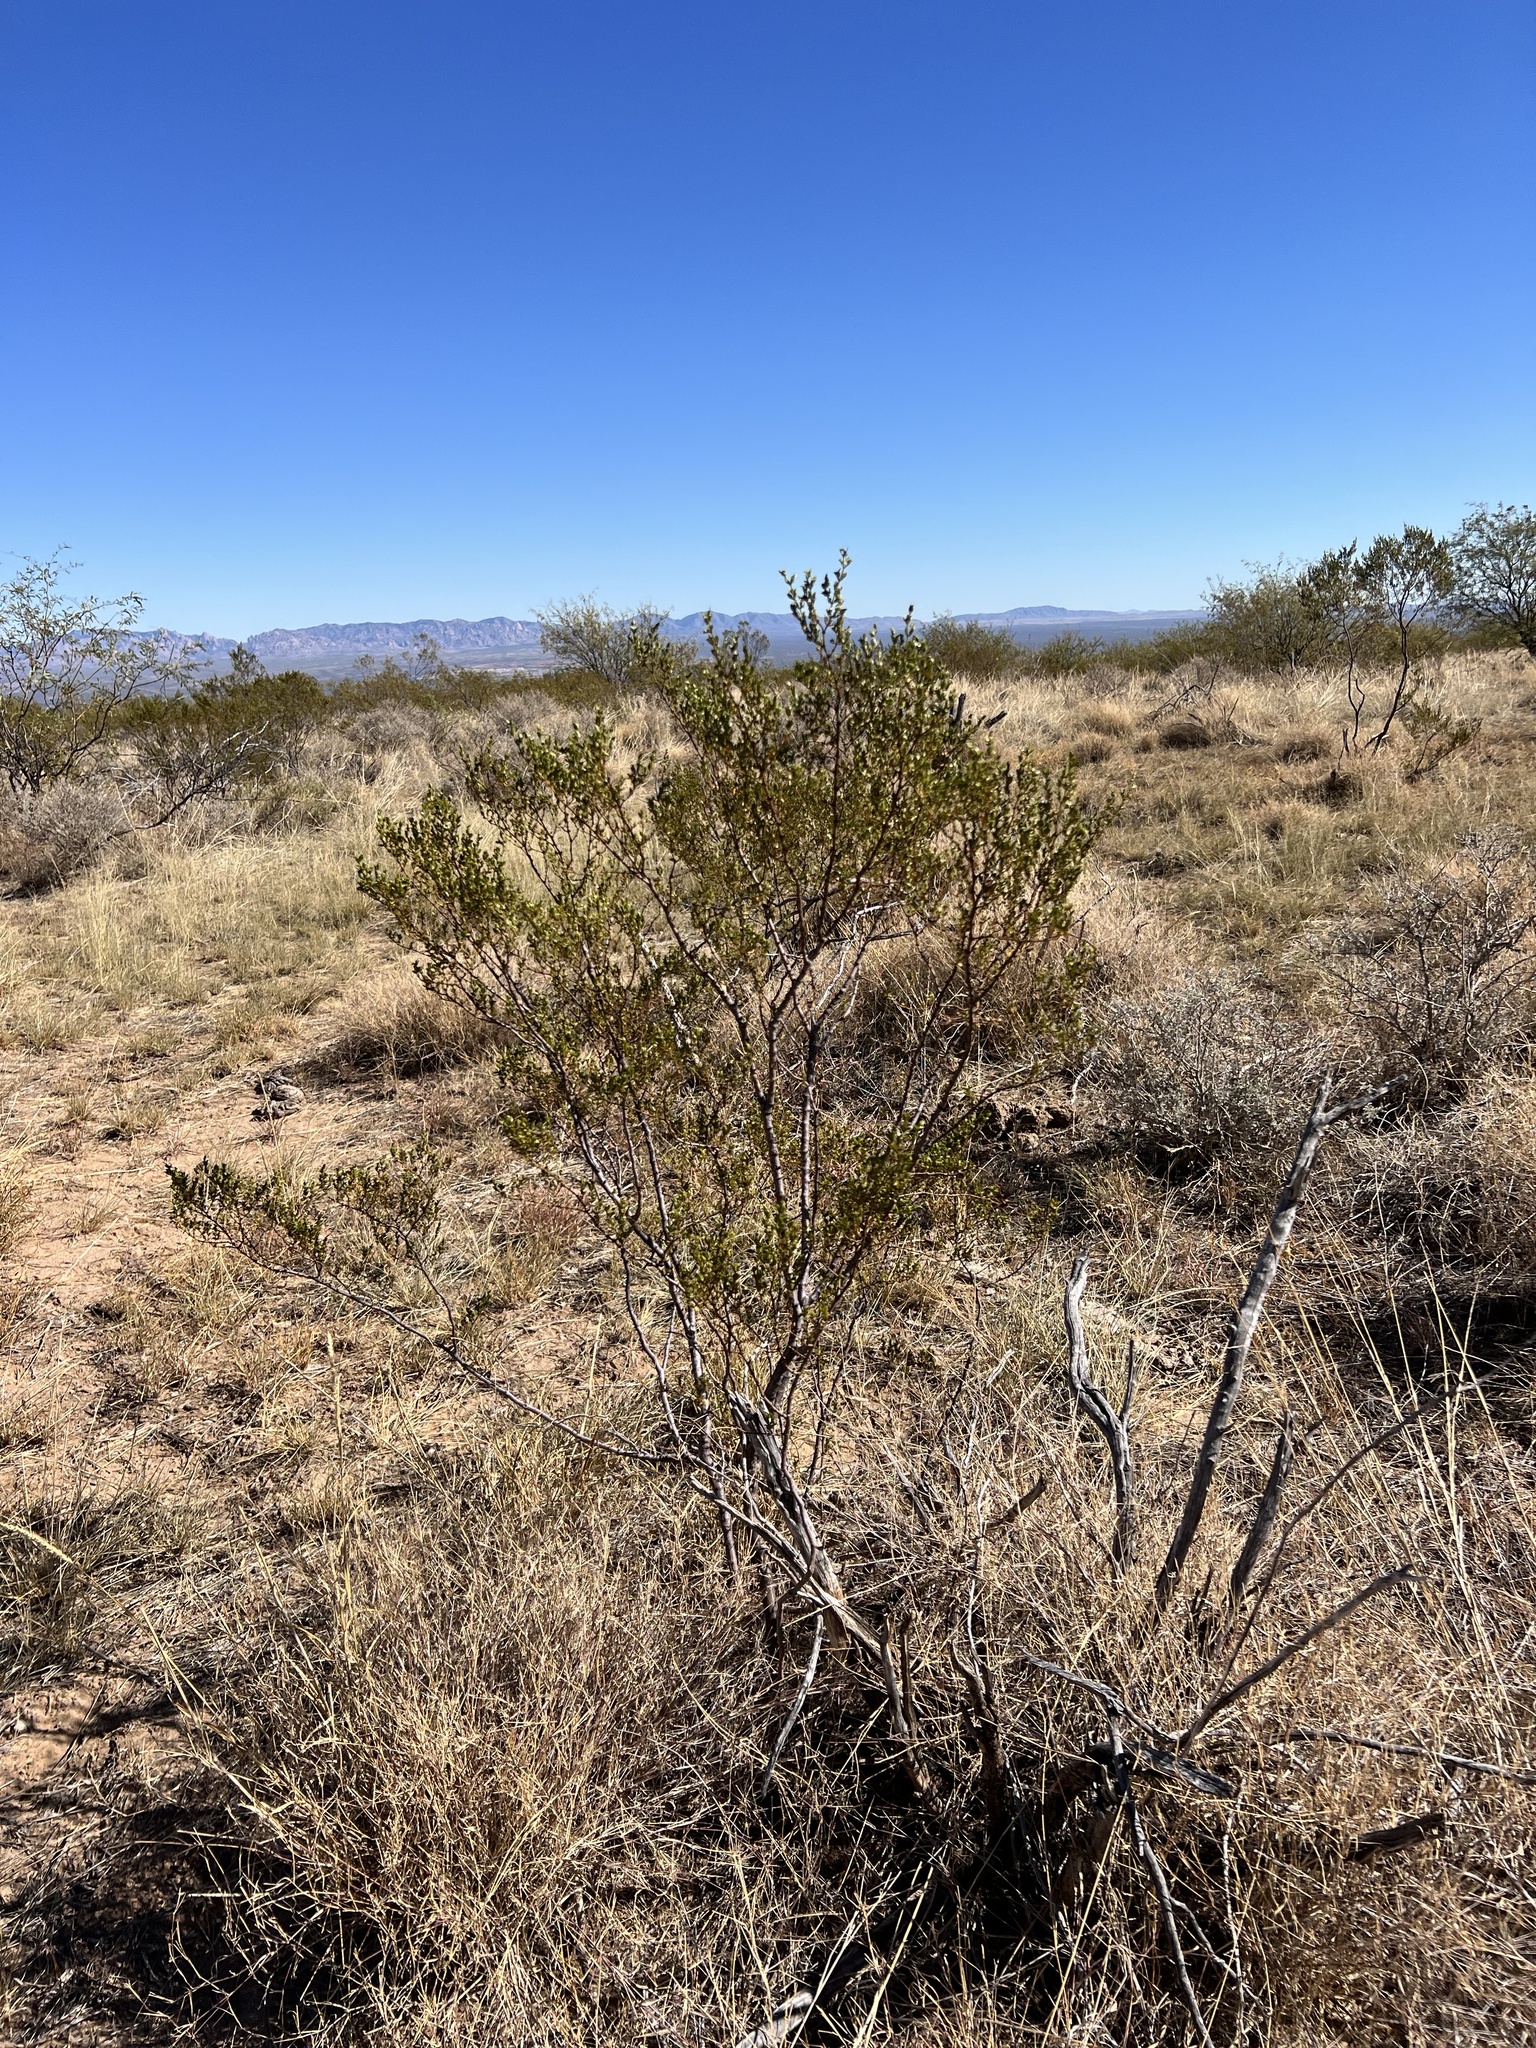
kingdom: Plantae
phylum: Tracheophyta
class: Magnoliopsida
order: Zygophyllales
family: Zygophyllaceae
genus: Larrea
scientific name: Larrea tridentata
